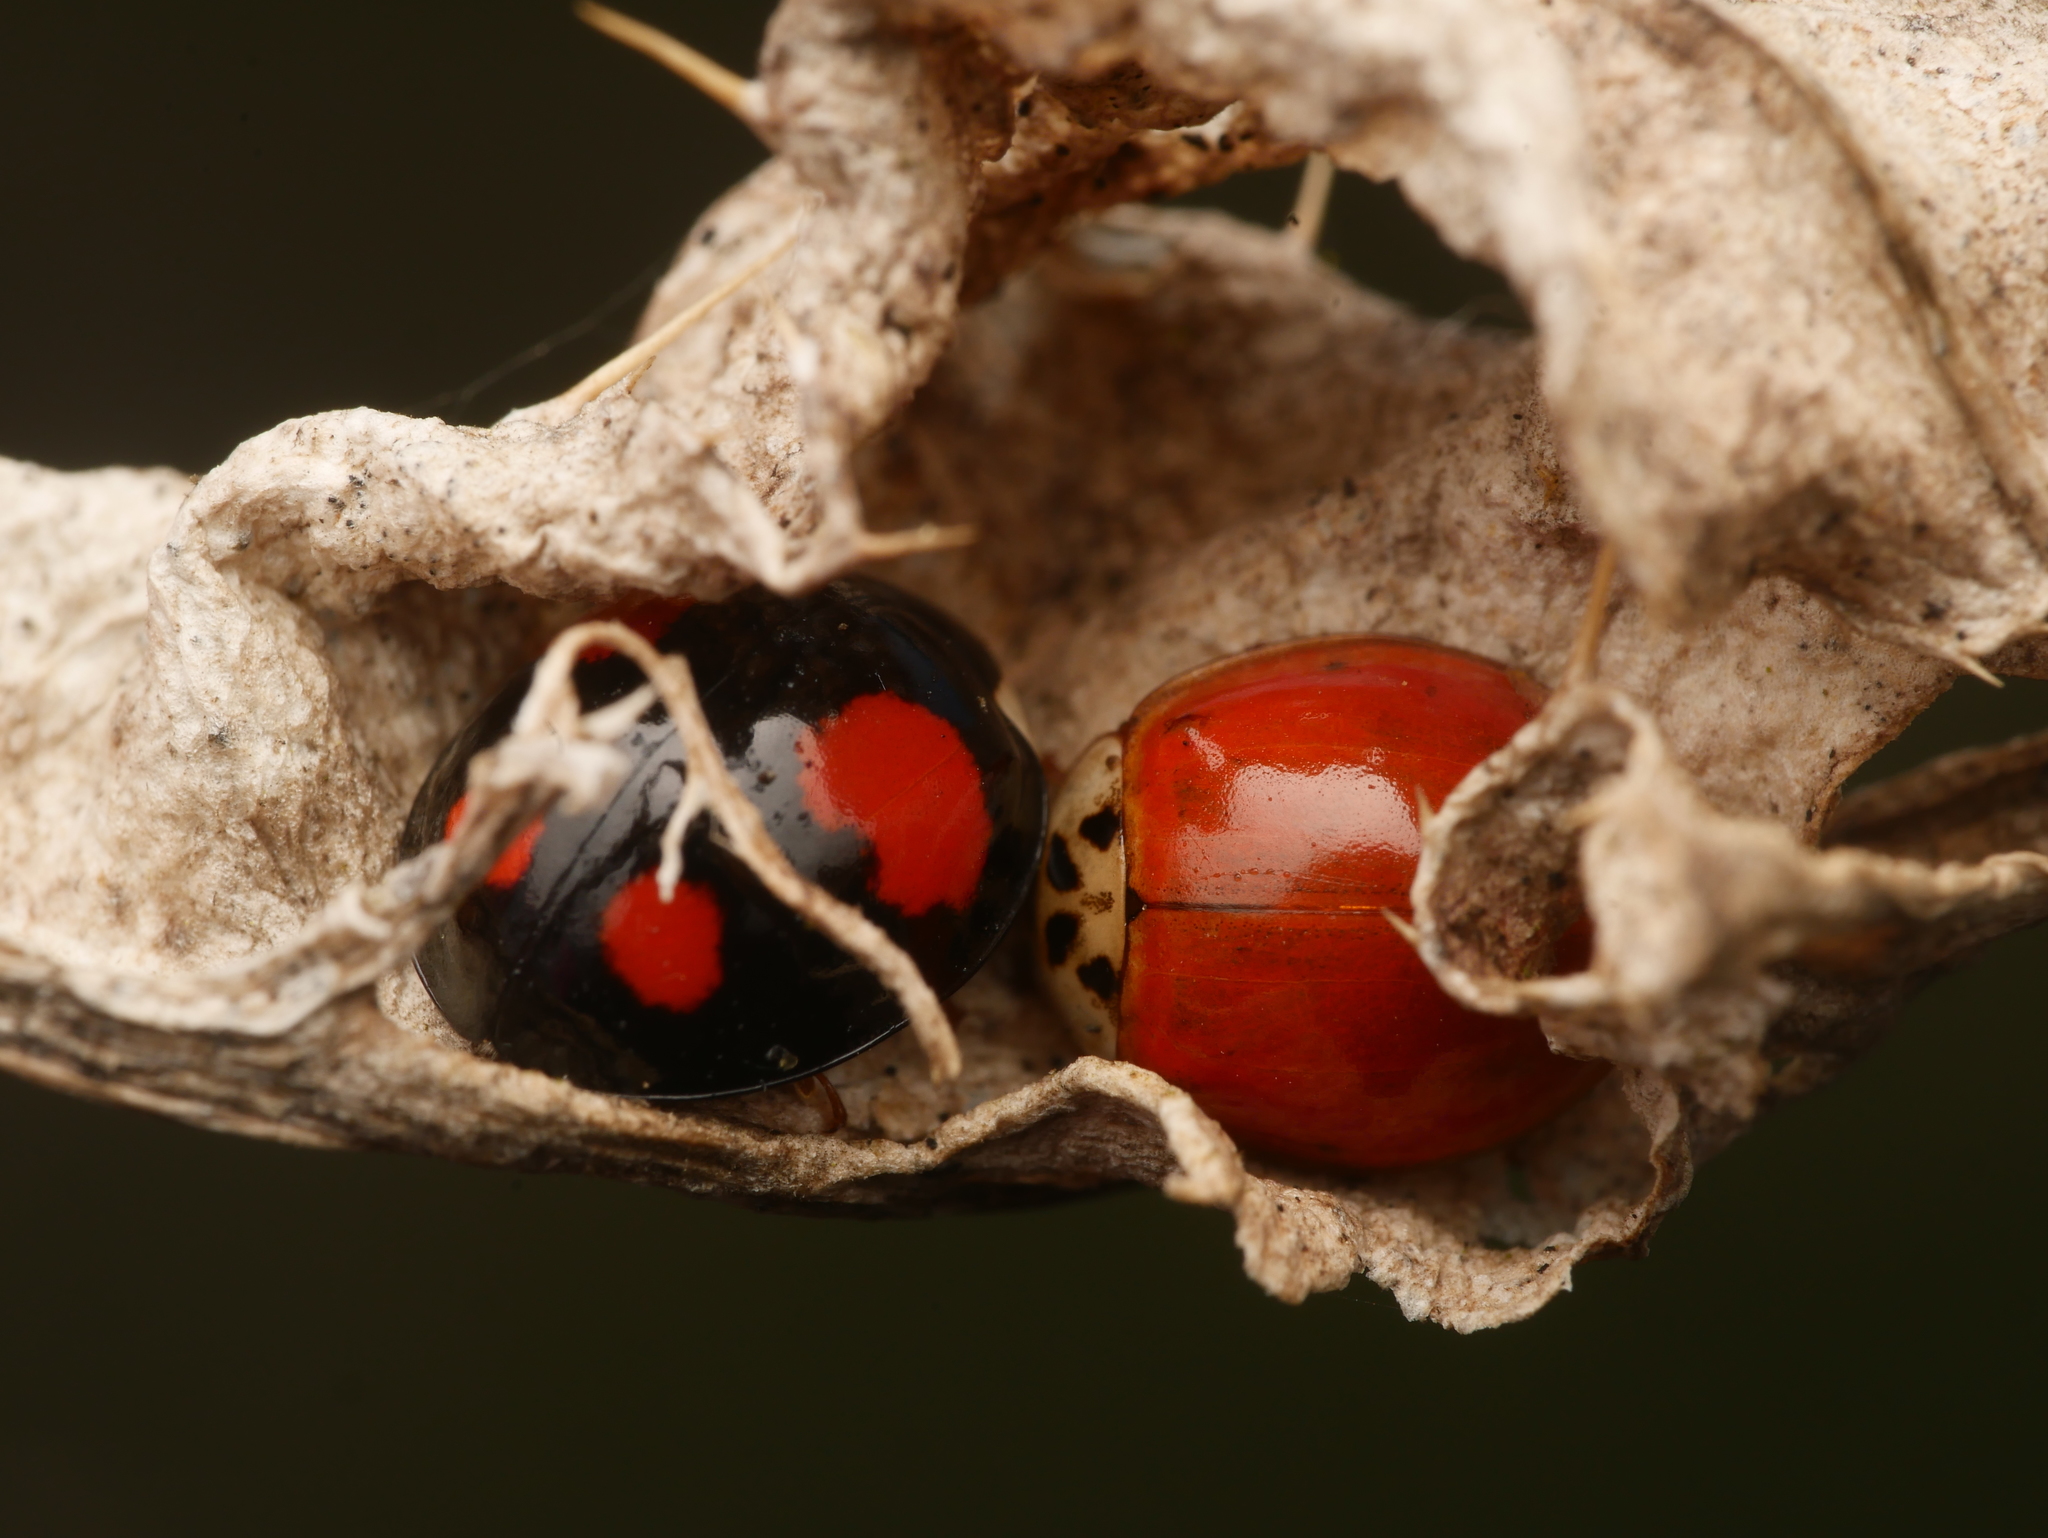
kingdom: Animalia
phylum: Arthropoda
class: Insecta
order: Coleoptera
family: Coccinellidae
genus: Harmonia
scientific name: Harmonia axyridis
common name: Harlequin ladybird
